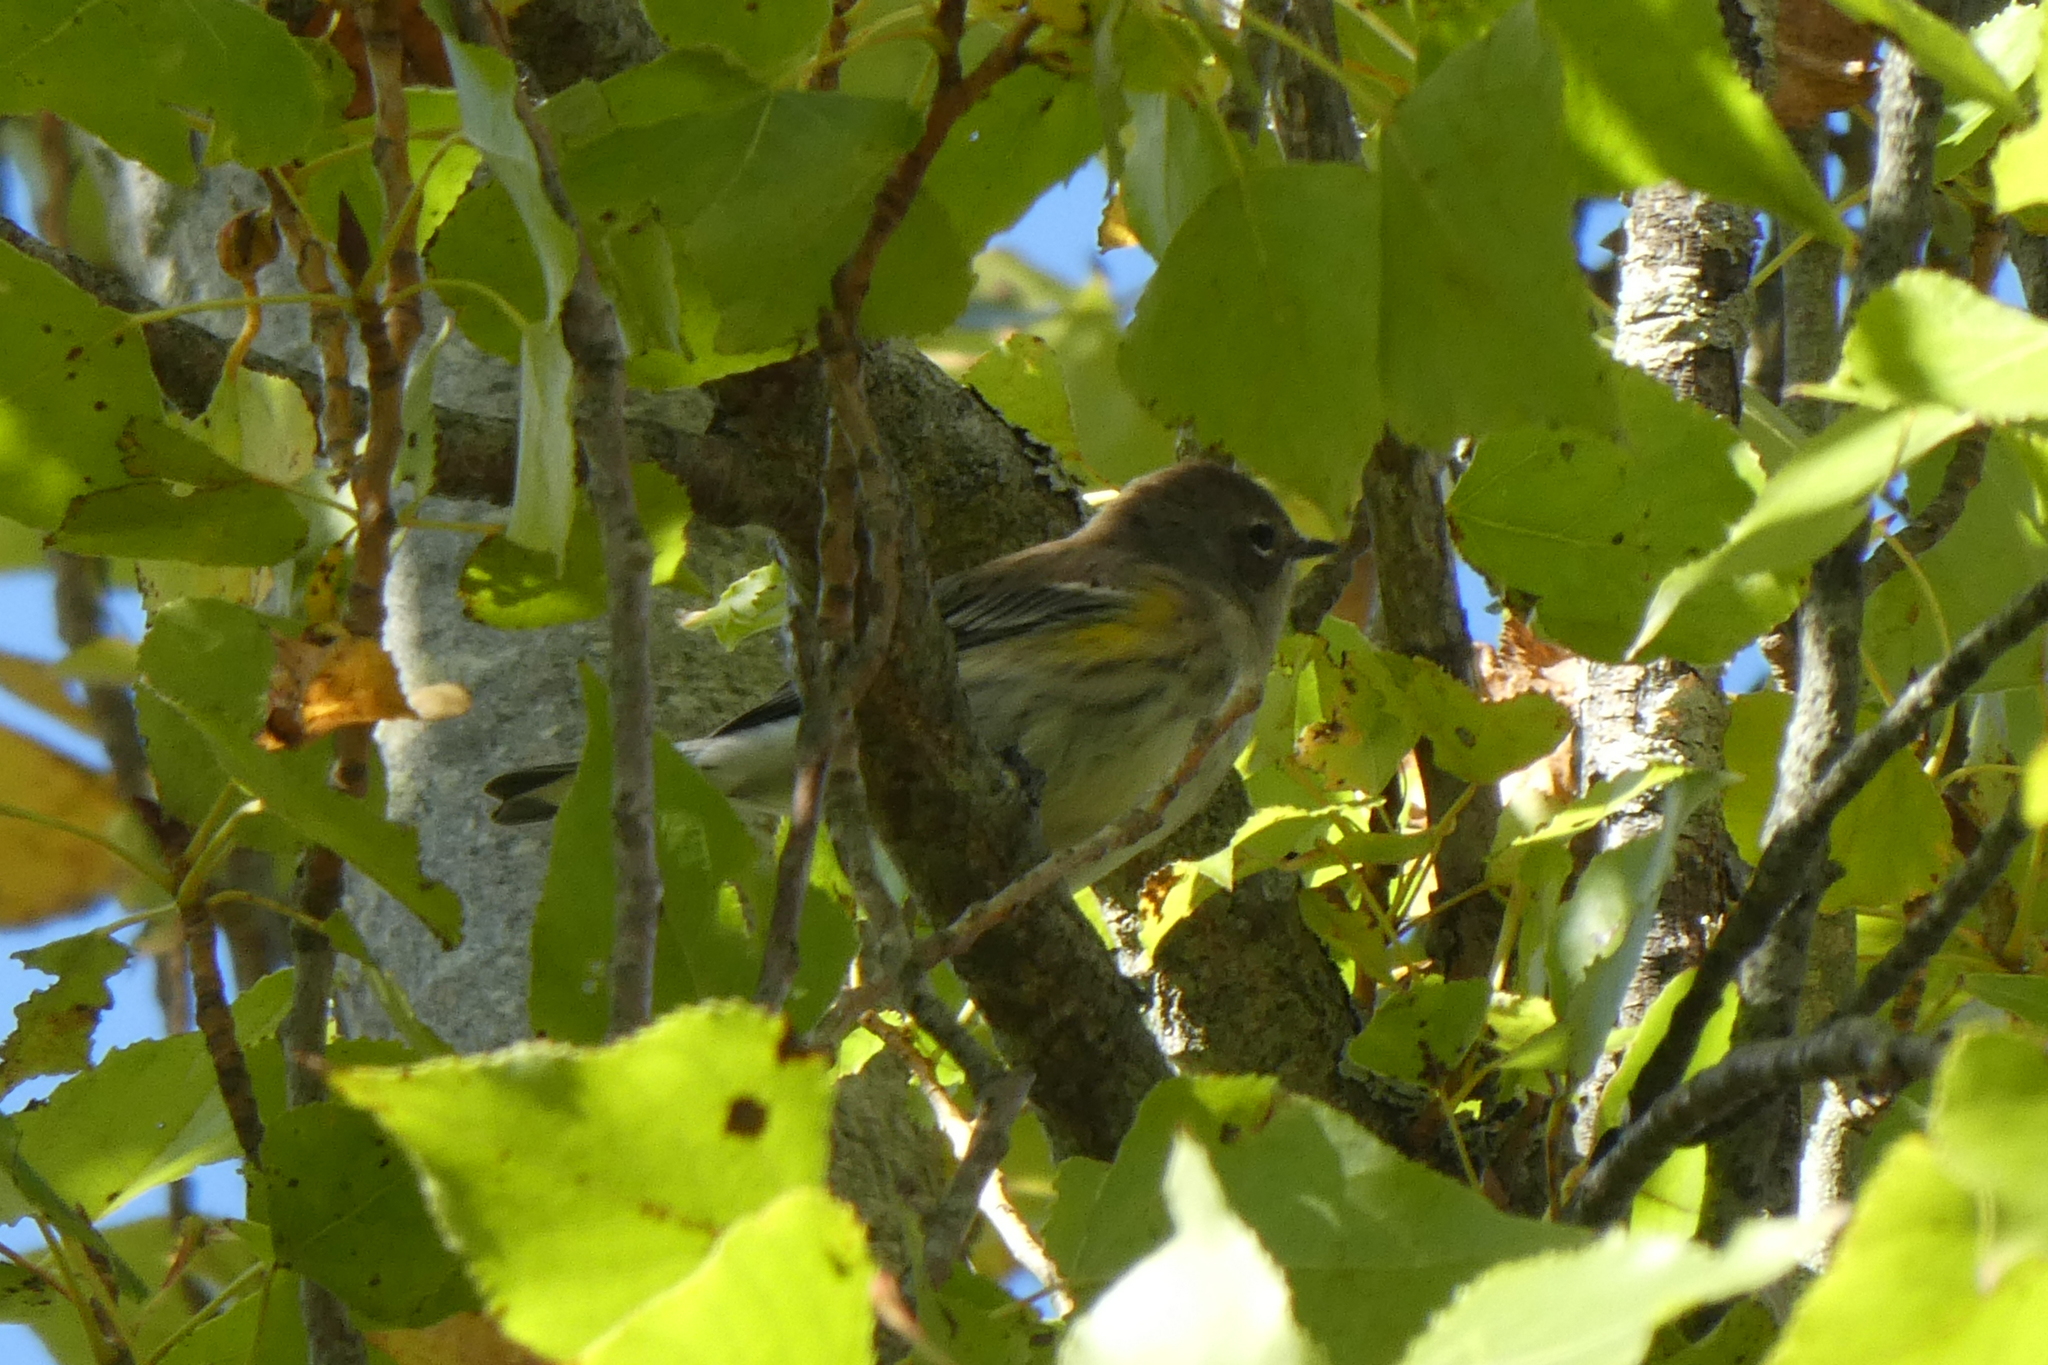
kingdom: Animalia
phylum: Chordata
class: Aves
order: Passeriformes
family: Parulidae
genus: Setophaga
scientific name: Setophaga coronata
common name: Myrtle warbler
